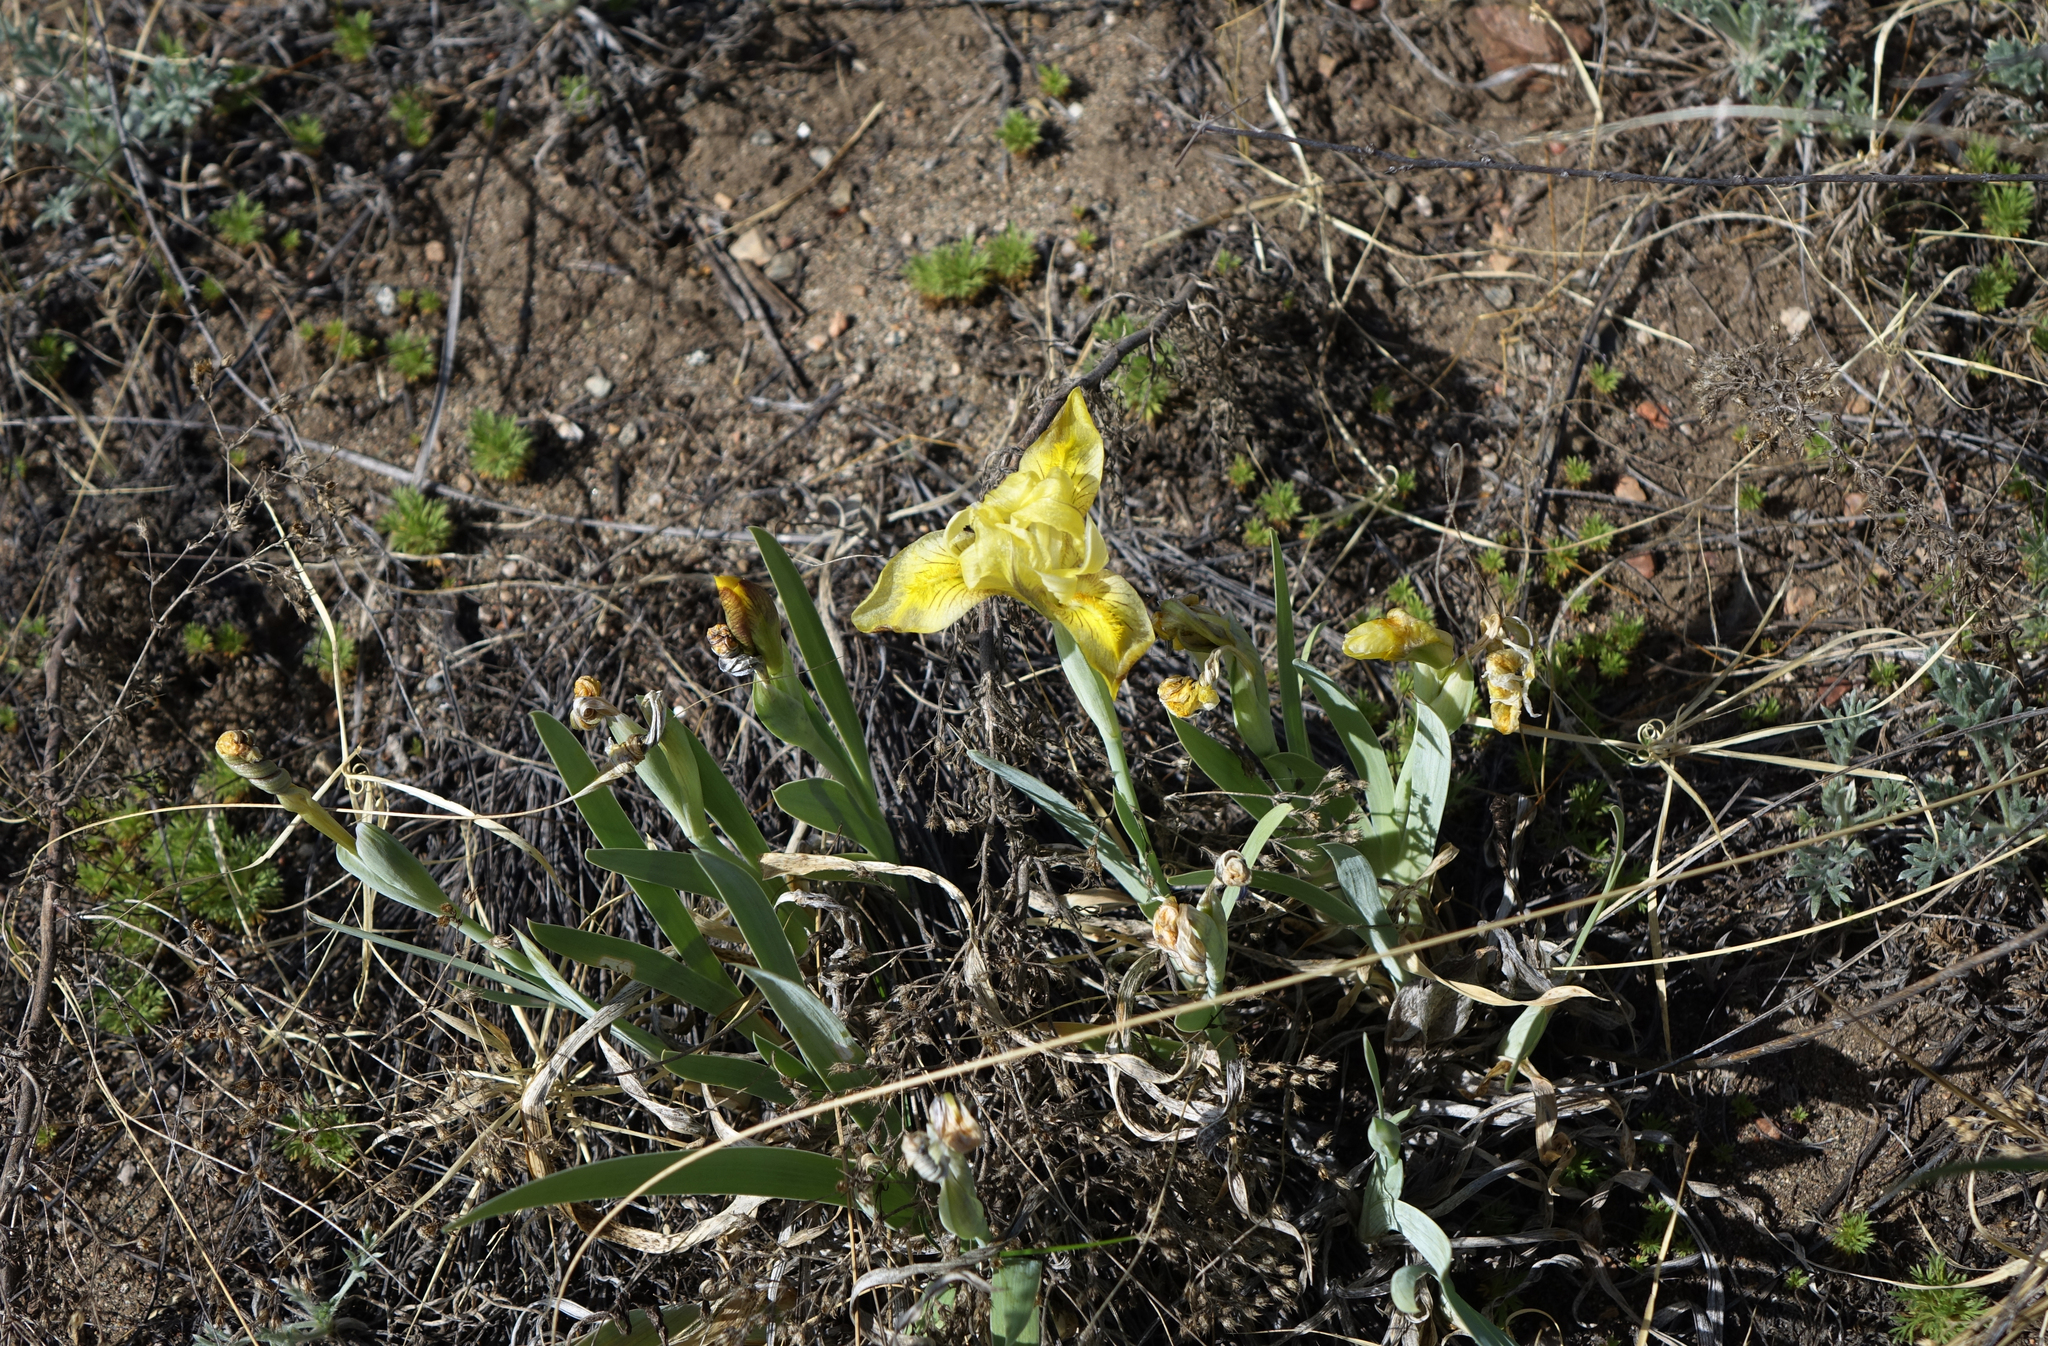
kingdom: Plantae
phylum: Tracheophyta
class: Liliopsida
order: Asparagales
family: Iridaceae
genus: Iris
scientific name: Iris humilis
